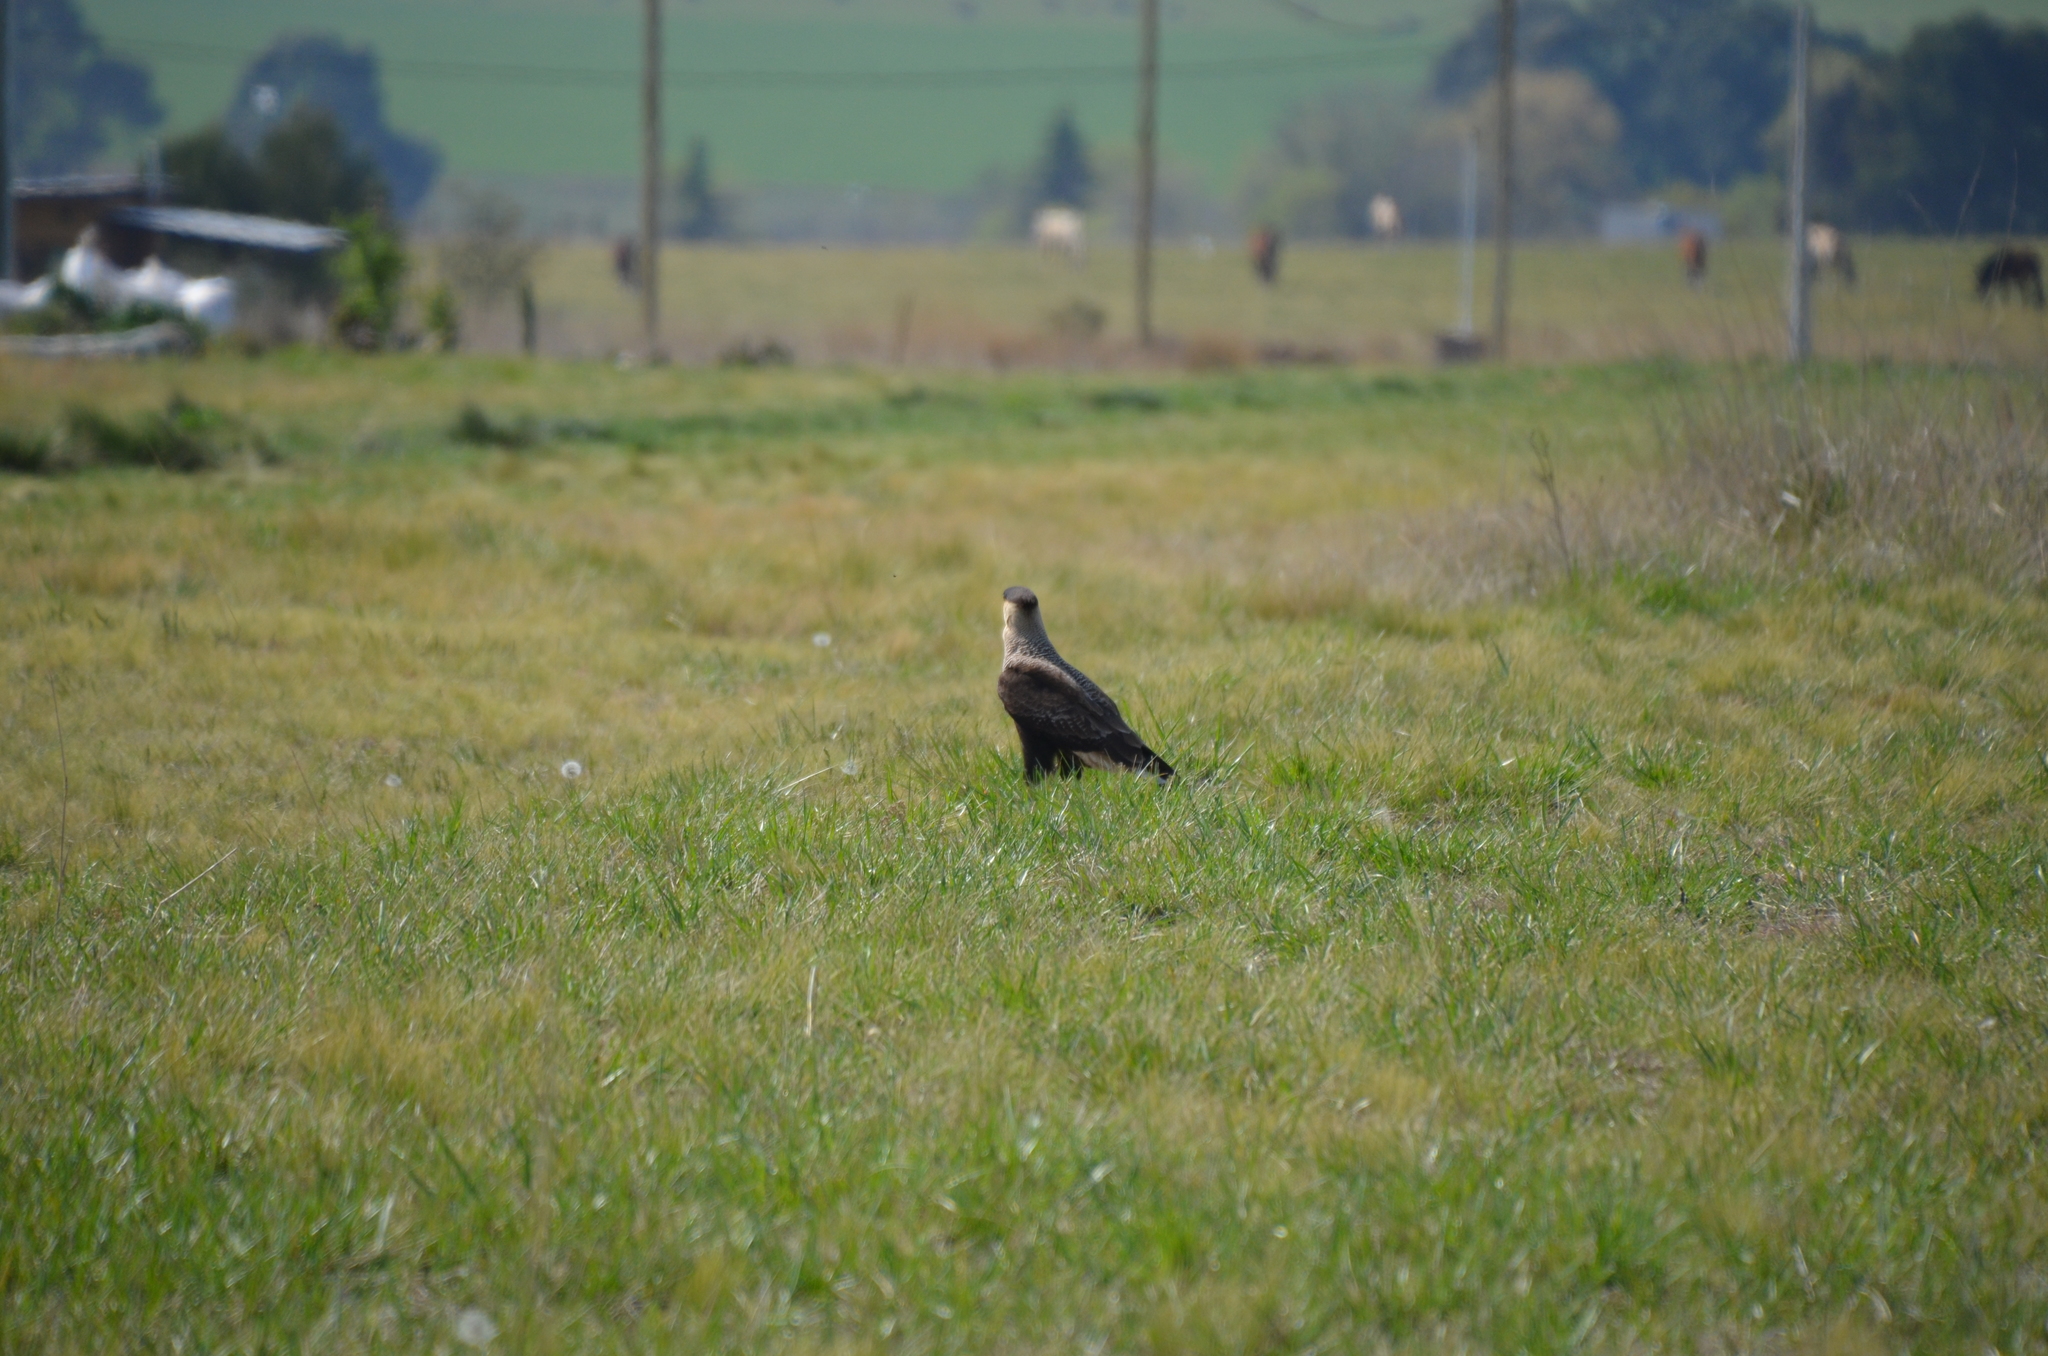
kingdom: Animalia
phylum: Chordata
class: Aves
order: Falconiformes
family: Falconidae
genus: Caracara
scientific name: Caracara plancus
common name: Southern caracara
